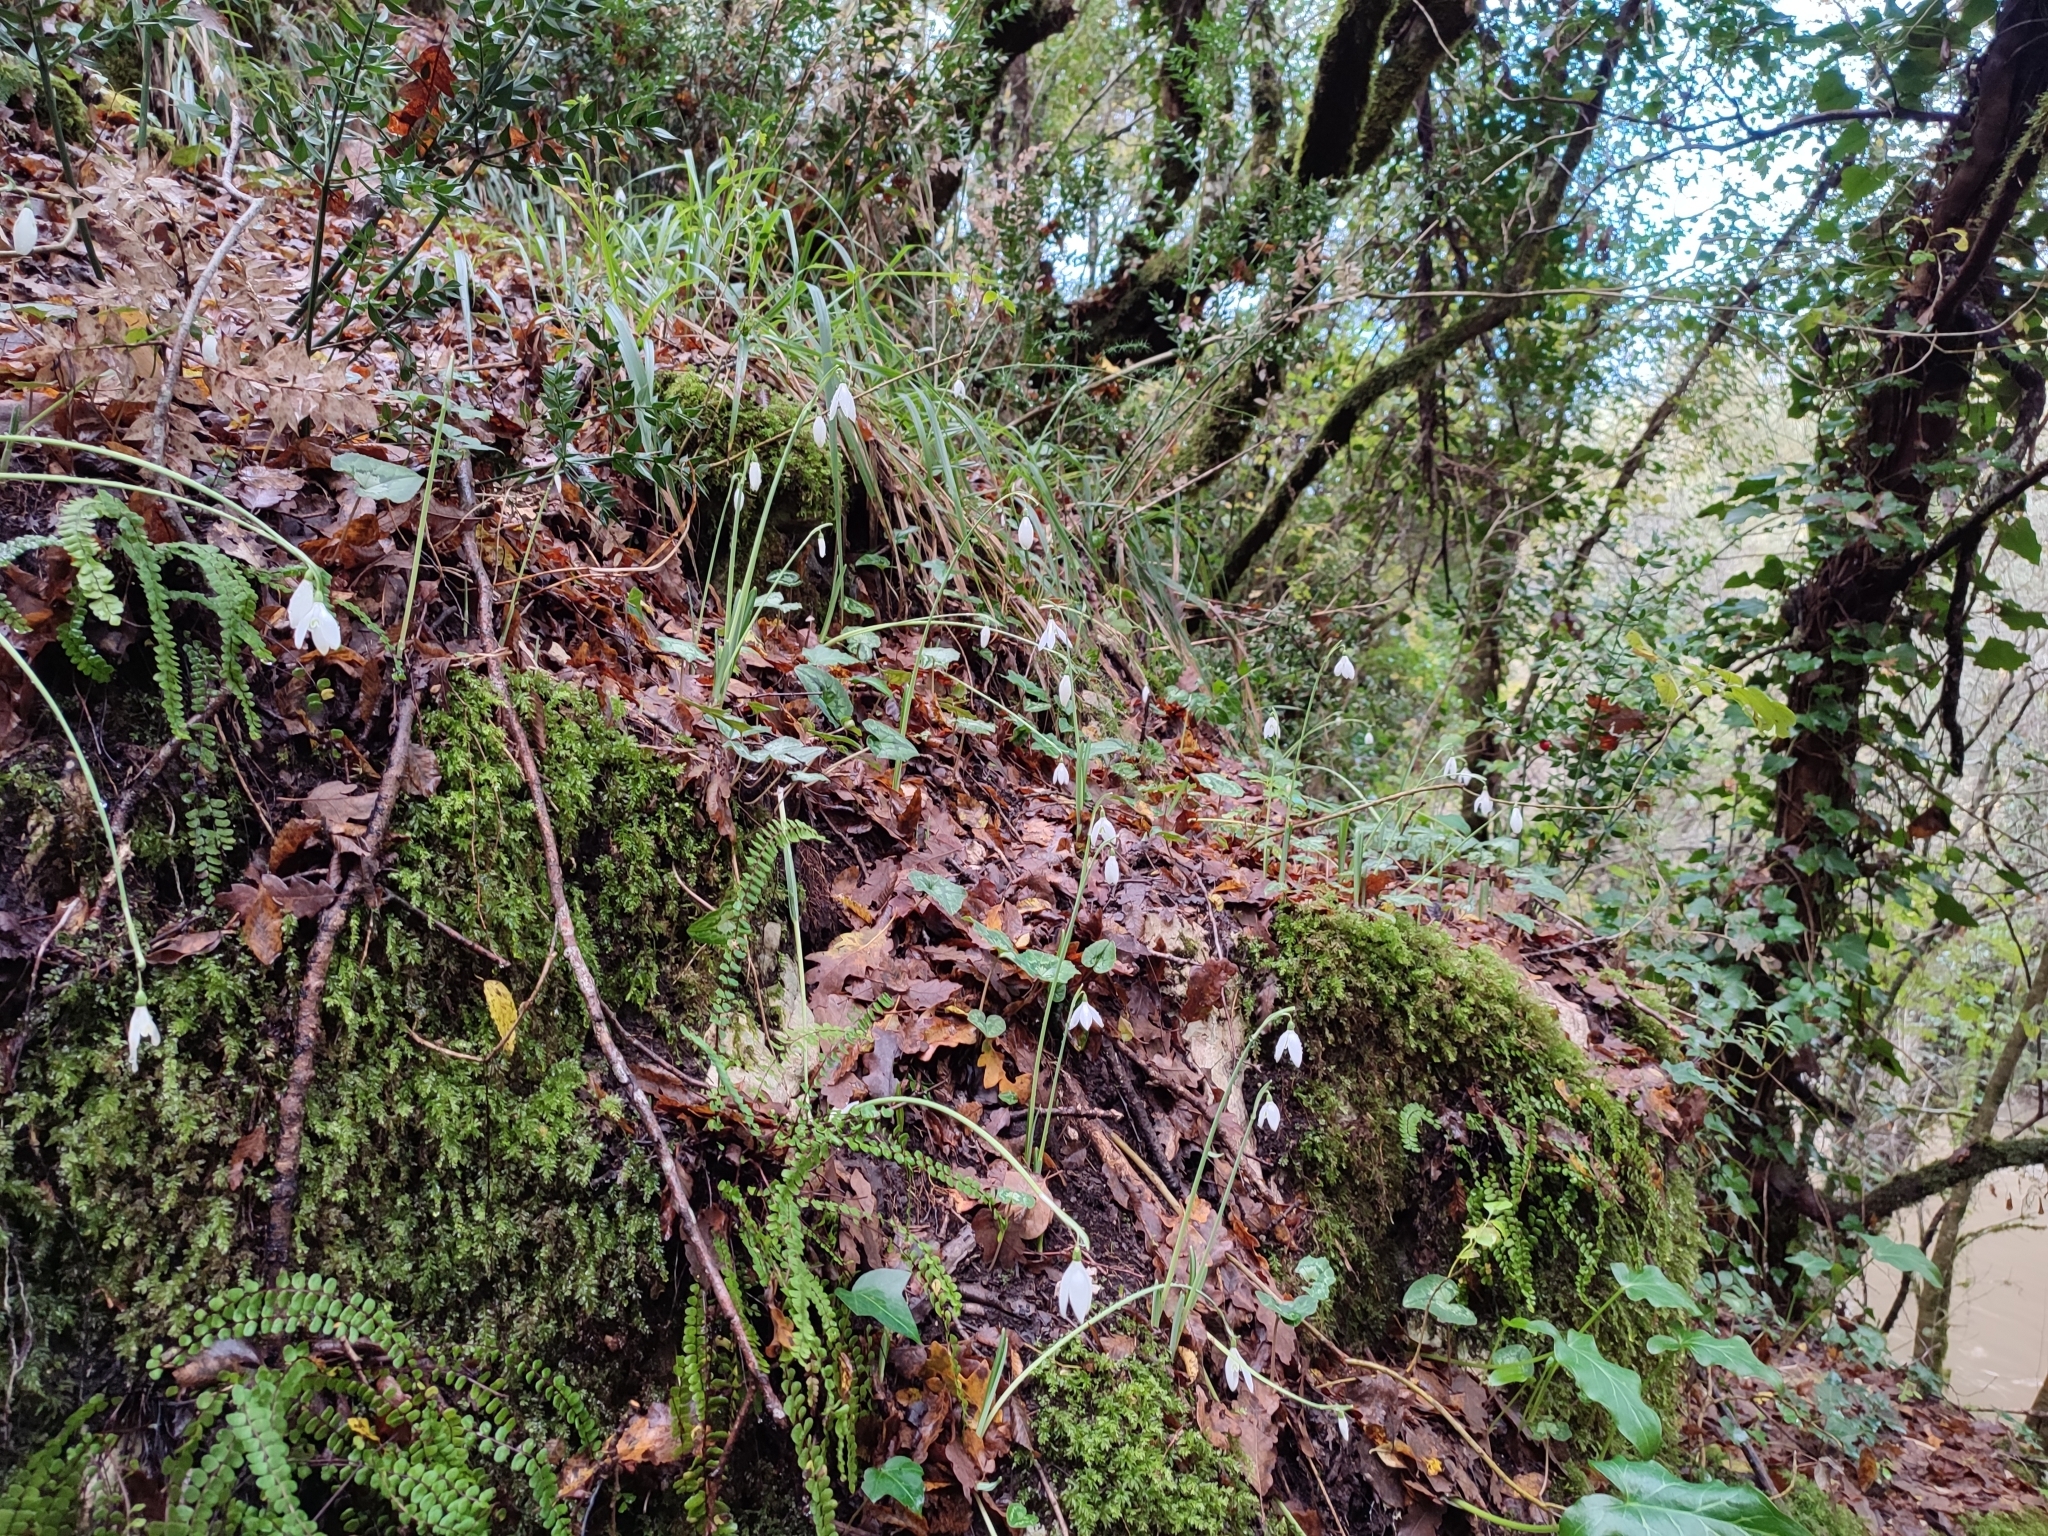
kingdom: Plantae
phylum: Tracheophyta
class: Liliopsida
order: Asparagales
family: Amaryllidaceae
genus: Galanthus
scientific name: Galanthus reginae-olgae
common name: Queen olga's snowdrop
